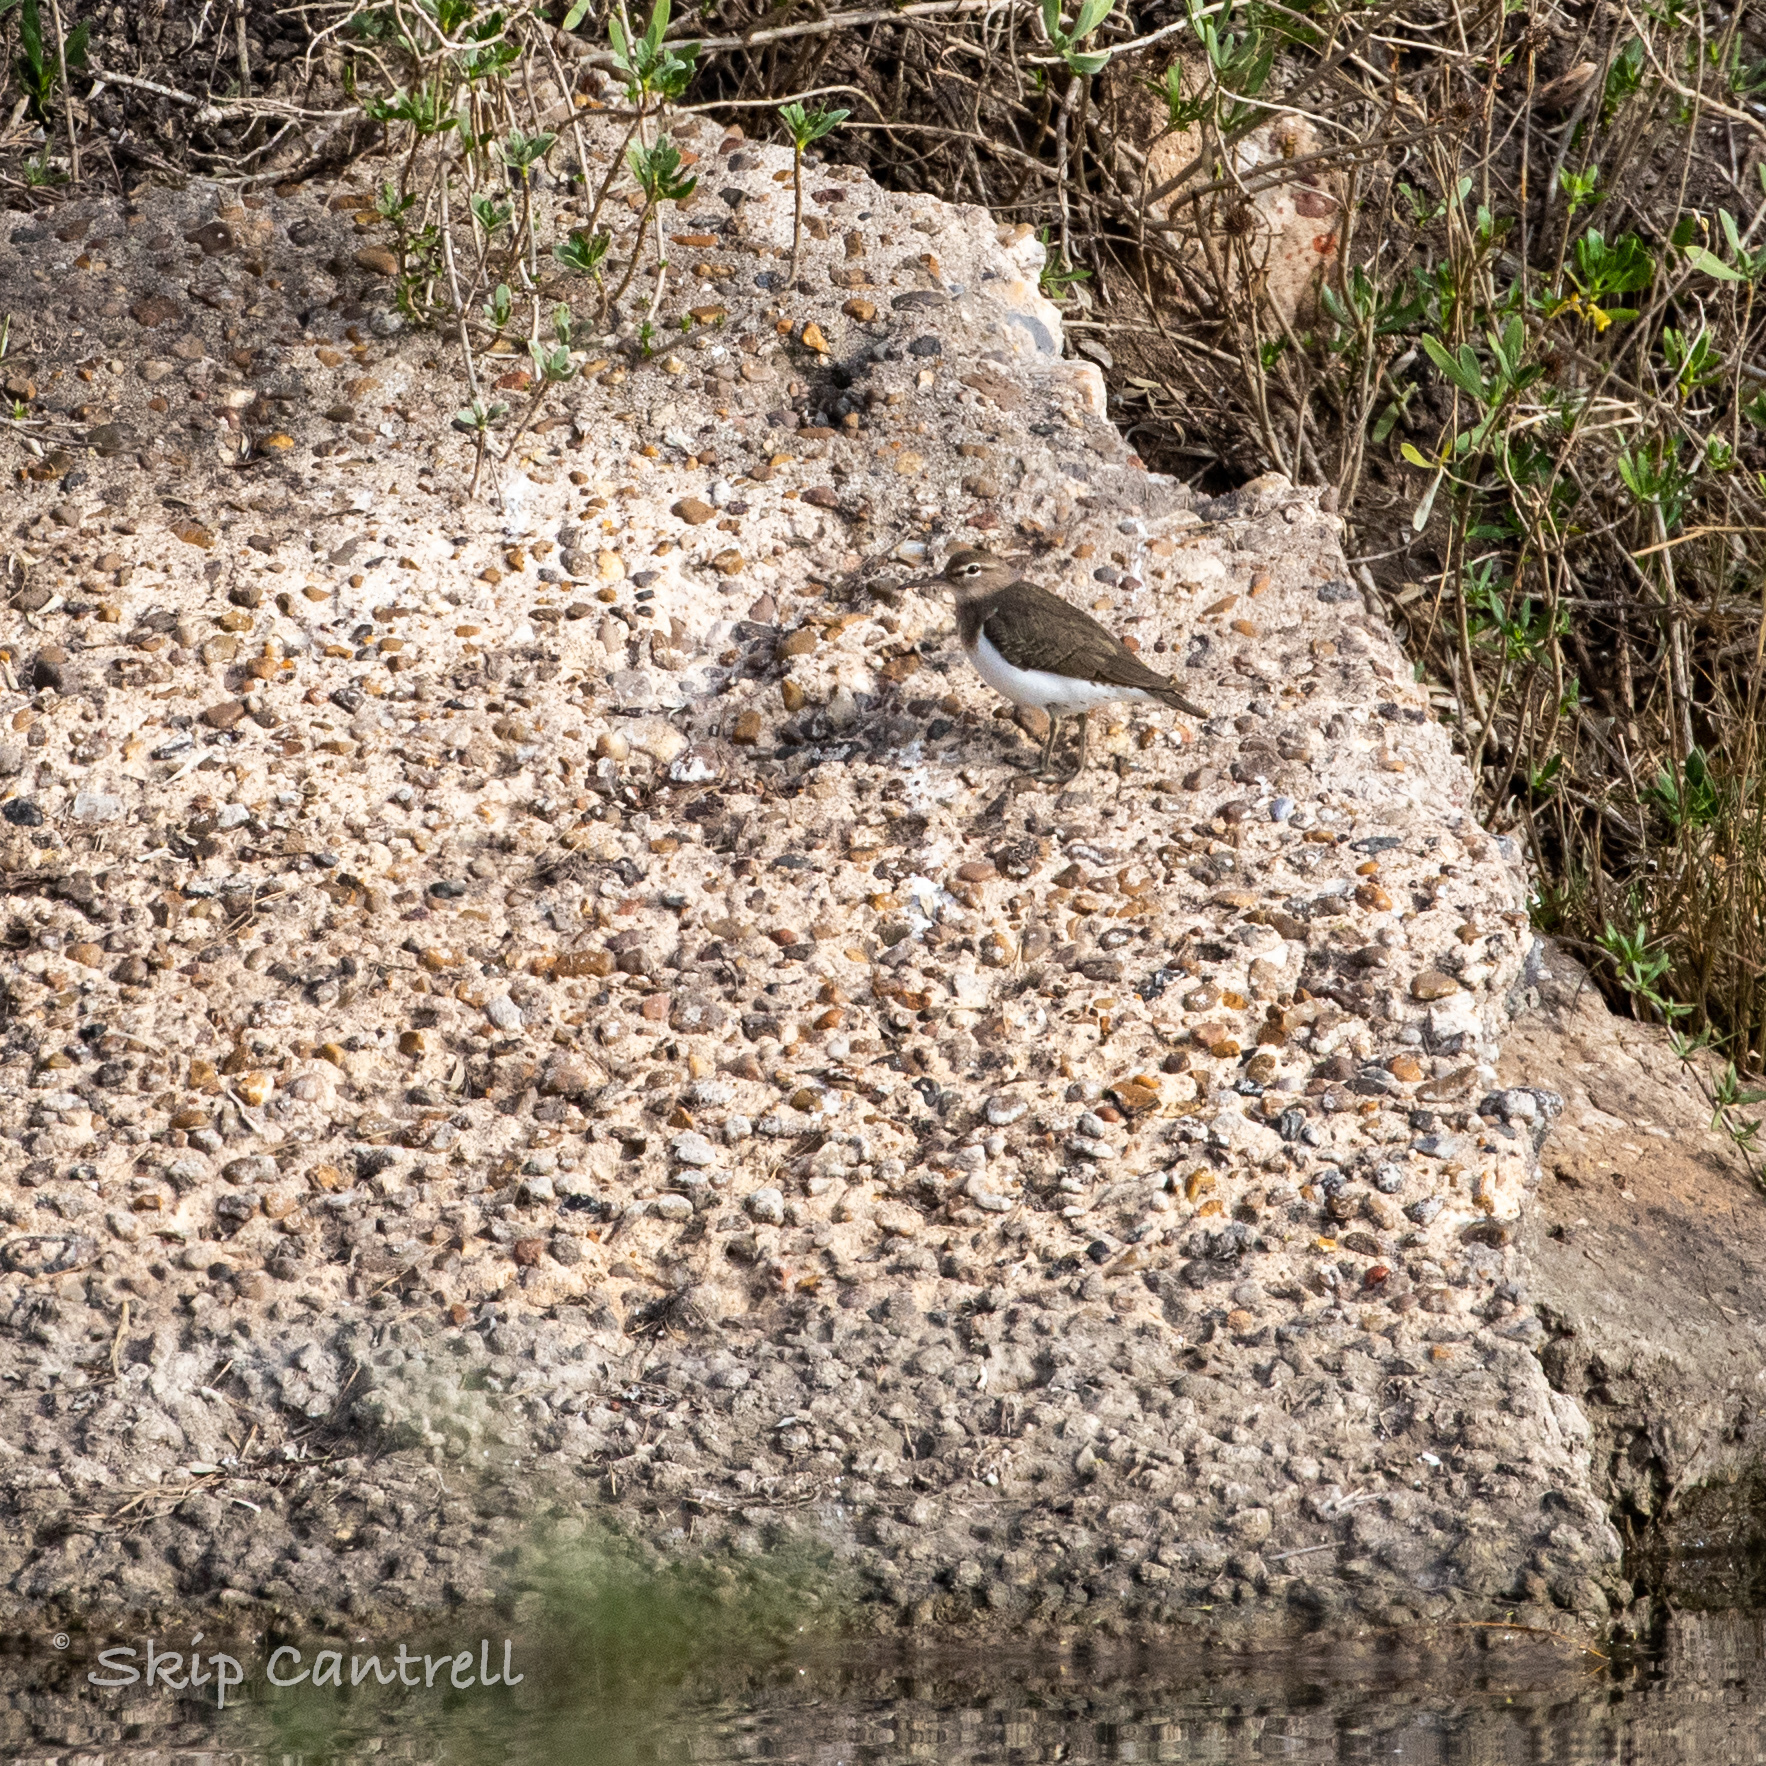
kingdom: Animalia
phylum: Chordata
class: Aves
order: Charadriiformes
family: Scolopacidae
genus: Actitis
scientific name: Actitis macularius
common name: Spotted sandpiper
